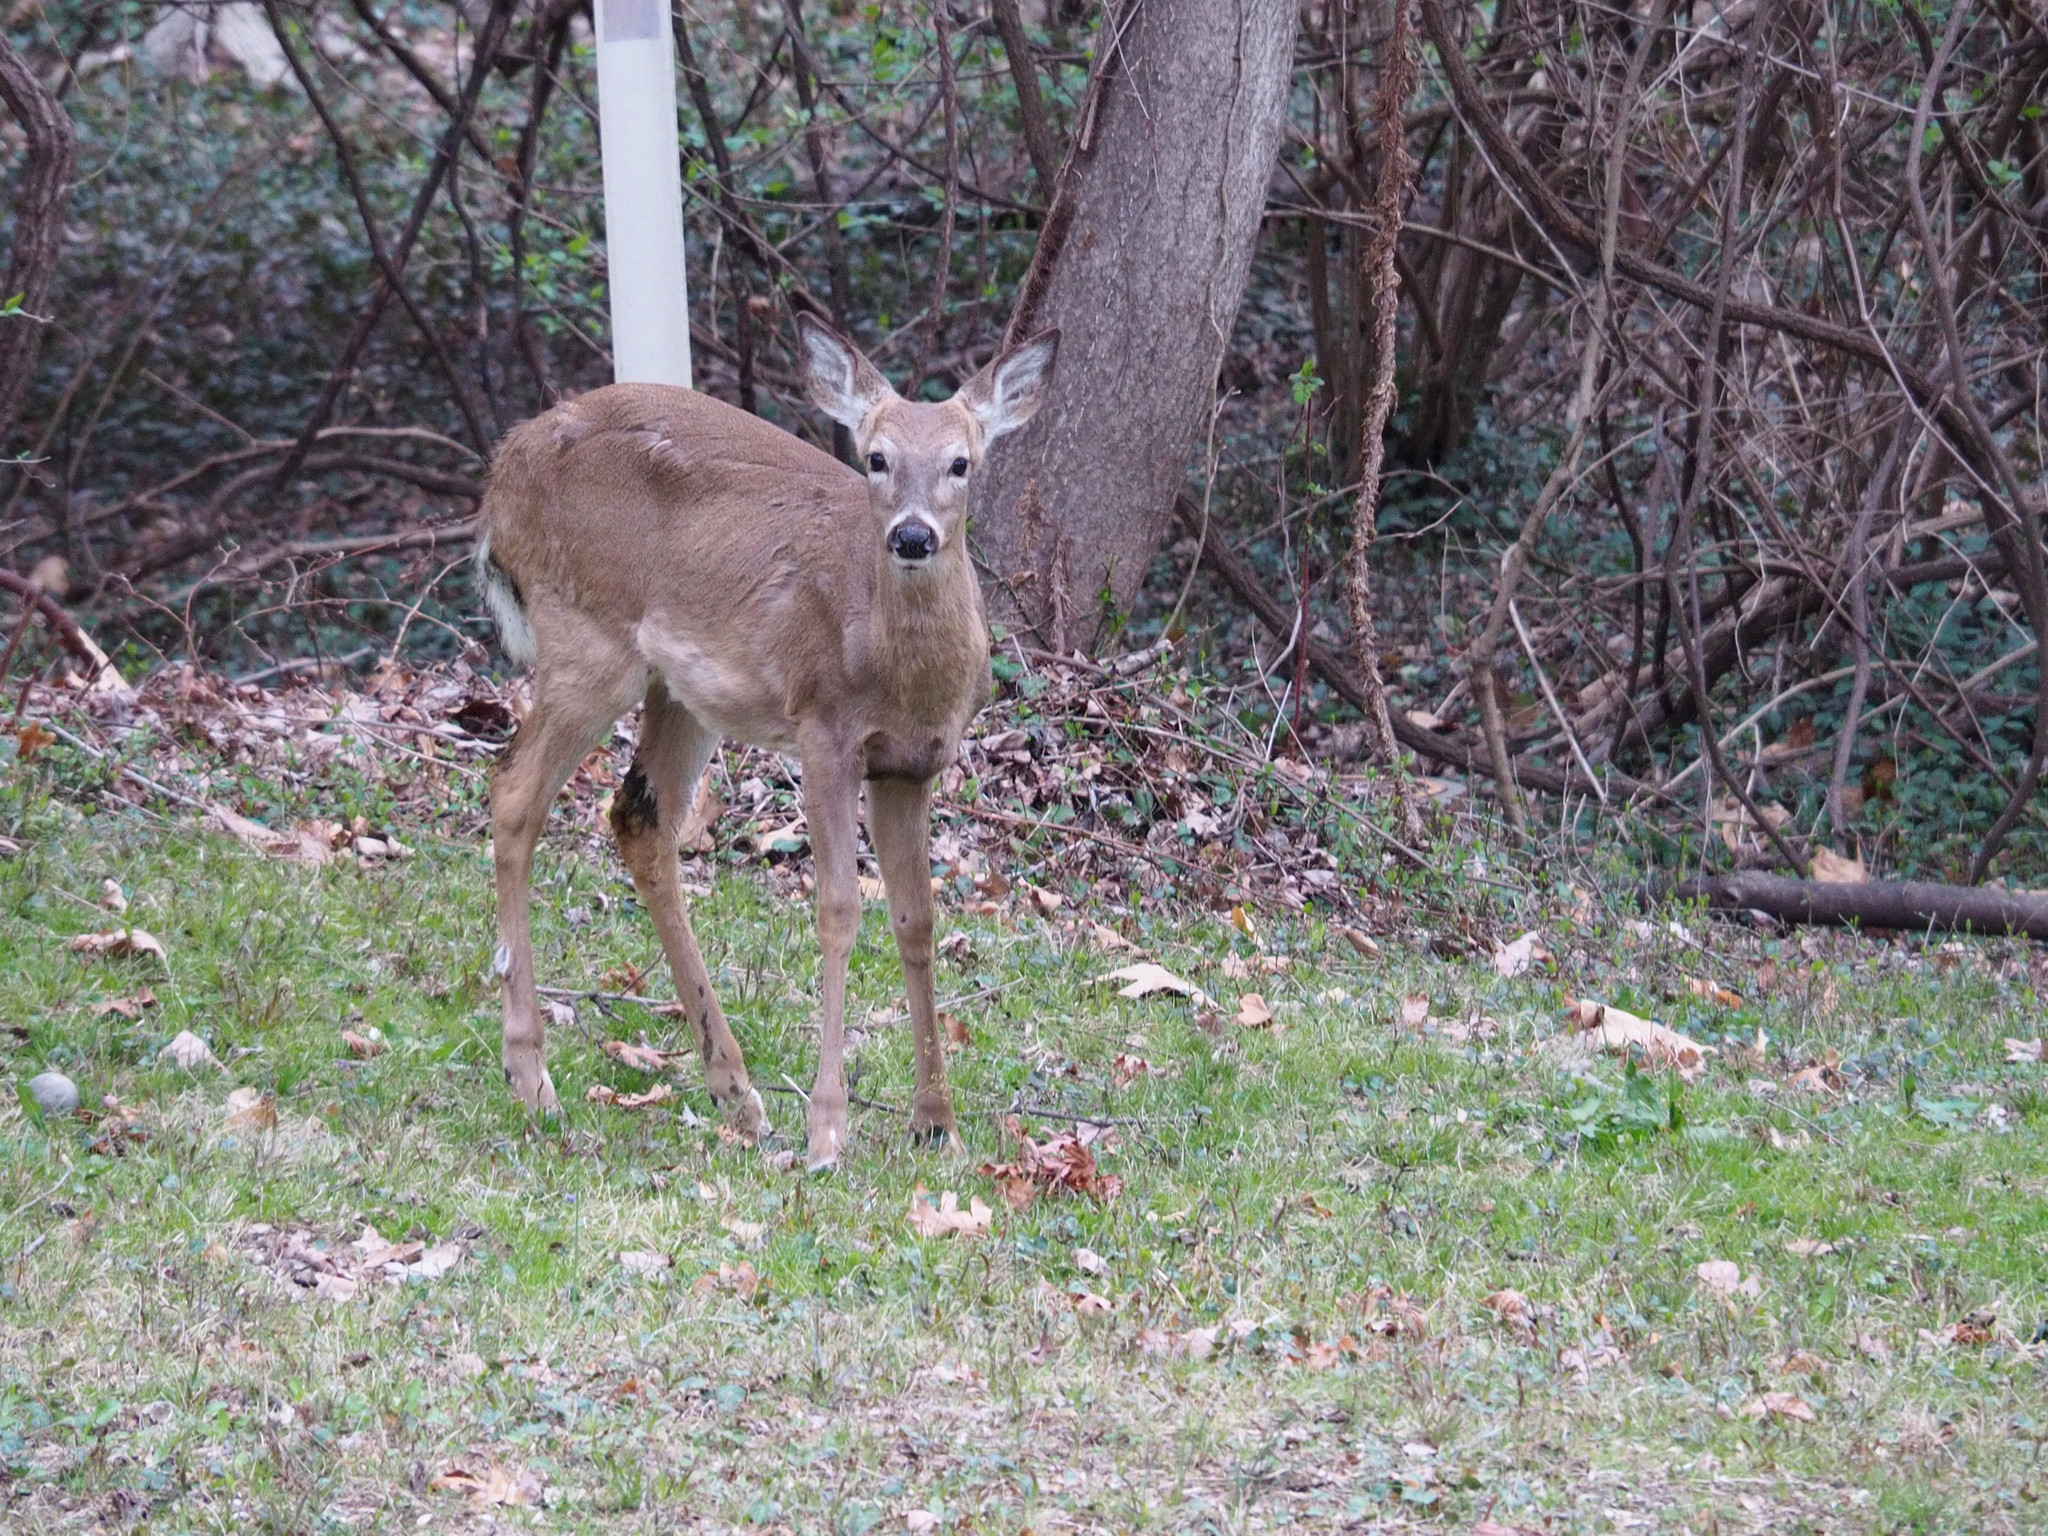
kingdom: Animalia
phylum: Chordata
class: Mammalia
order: Artiodactyla
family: Cervidae
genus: Odocoileus
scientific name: Odocoileus virginianus
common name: White-tailed deer
